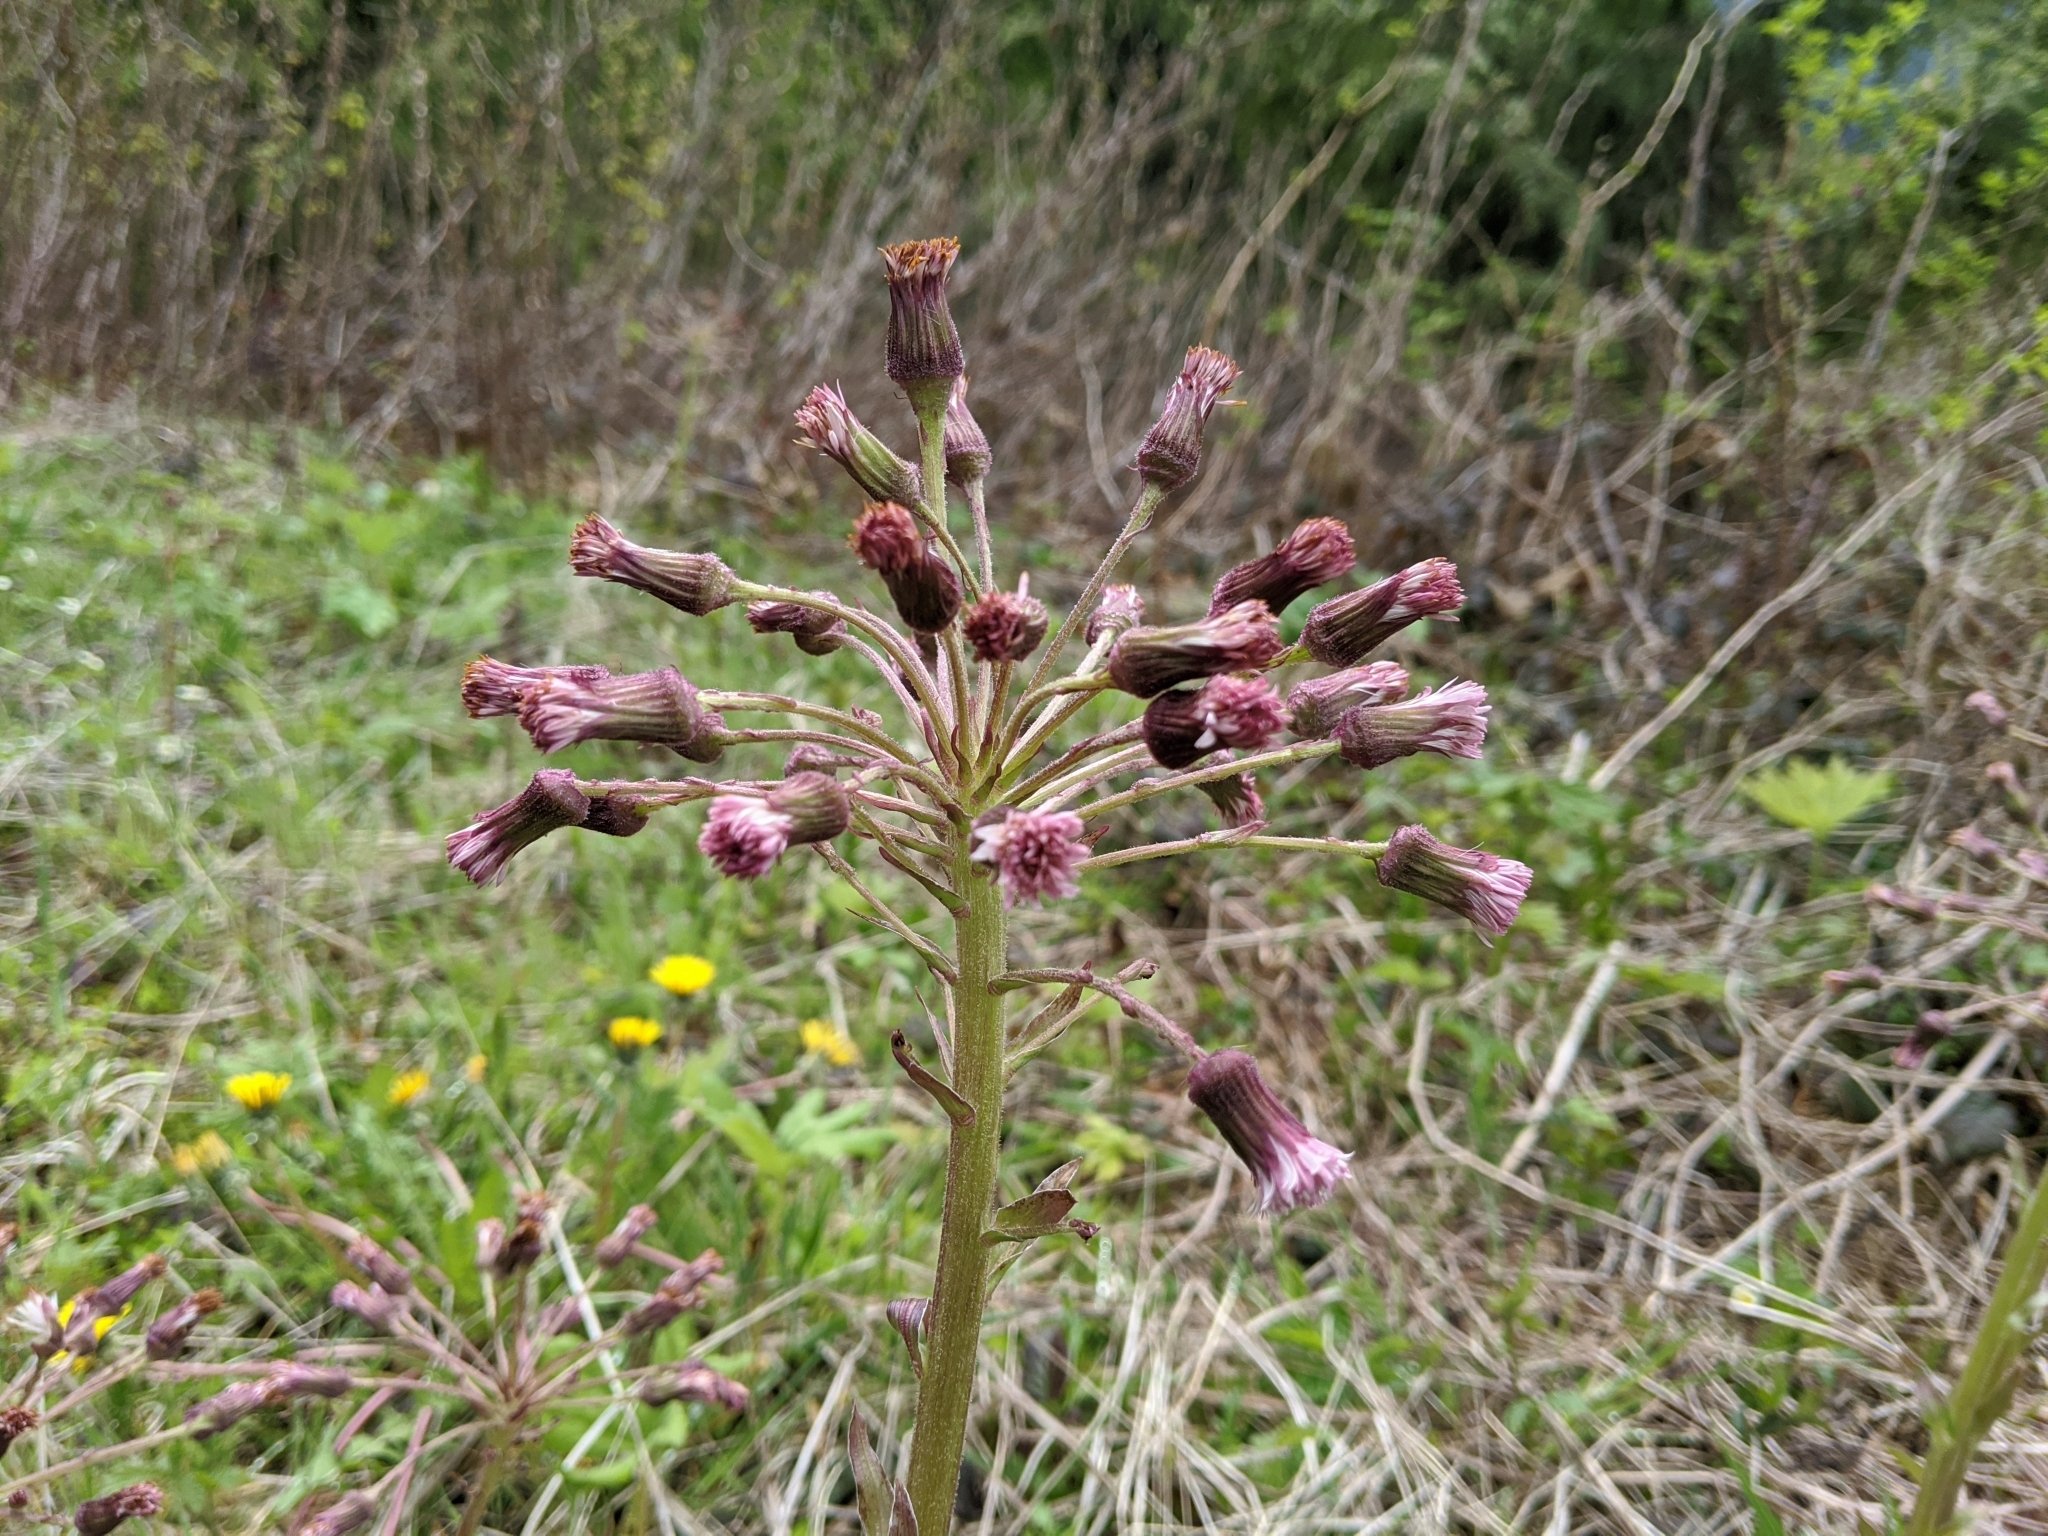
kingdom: Plantae
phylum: Tracheophyta
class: Magnoliopsida
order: Asterales
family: Asteraceae
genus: Petasites
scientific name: Petasites frigidus
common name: Arctic butterbur
